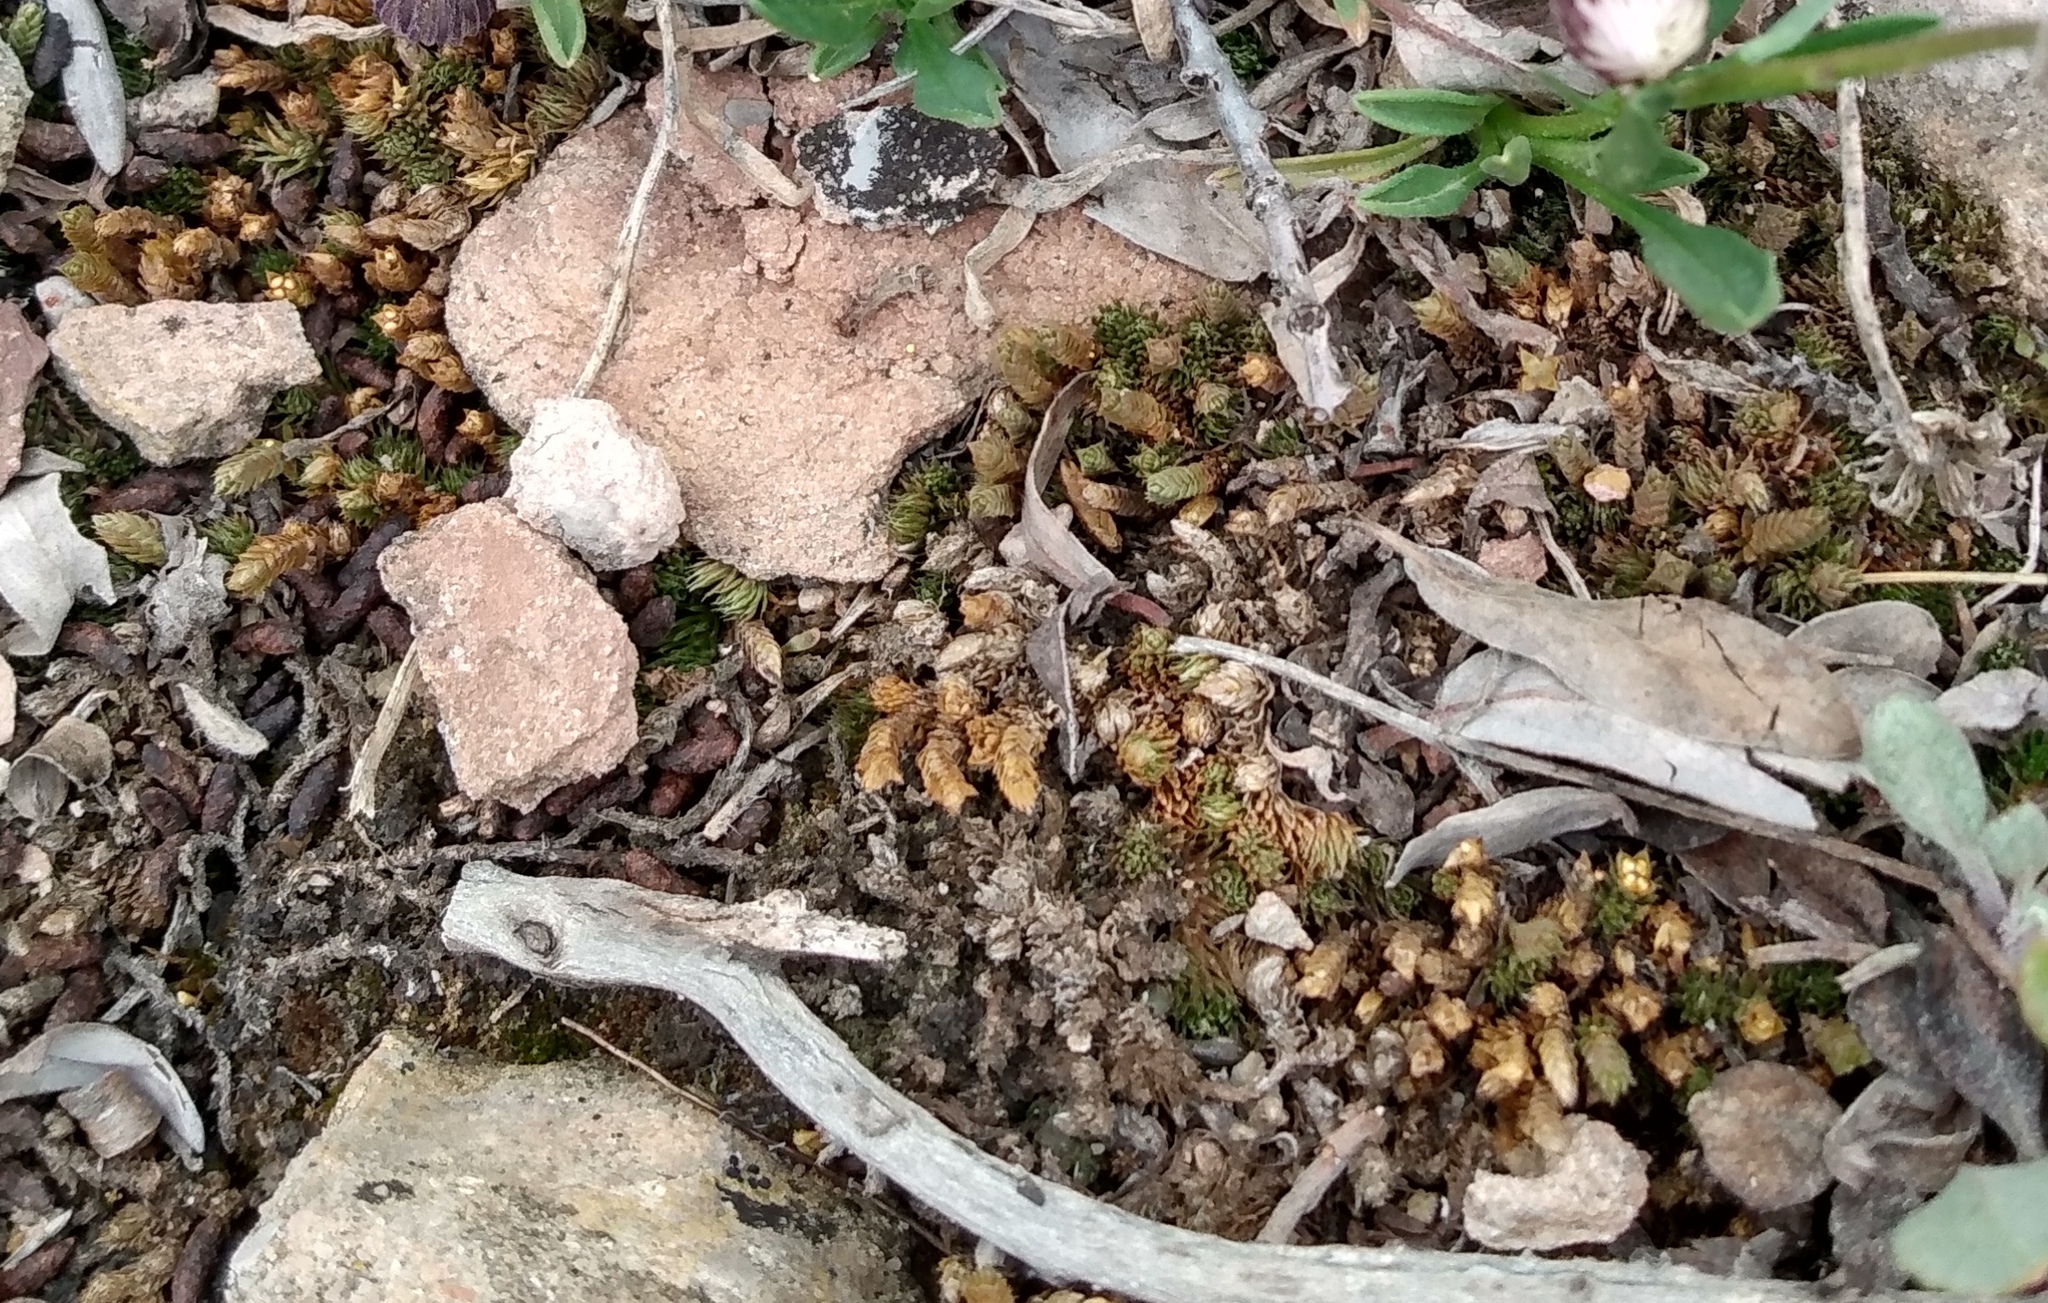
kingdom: Plantae
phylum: Tracheophyta
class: Lycopodiopsida
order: Selaginellales
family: Selaginellaceae
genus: Selaginella
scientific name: Selaginella densa
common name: Mountain spike-moss
